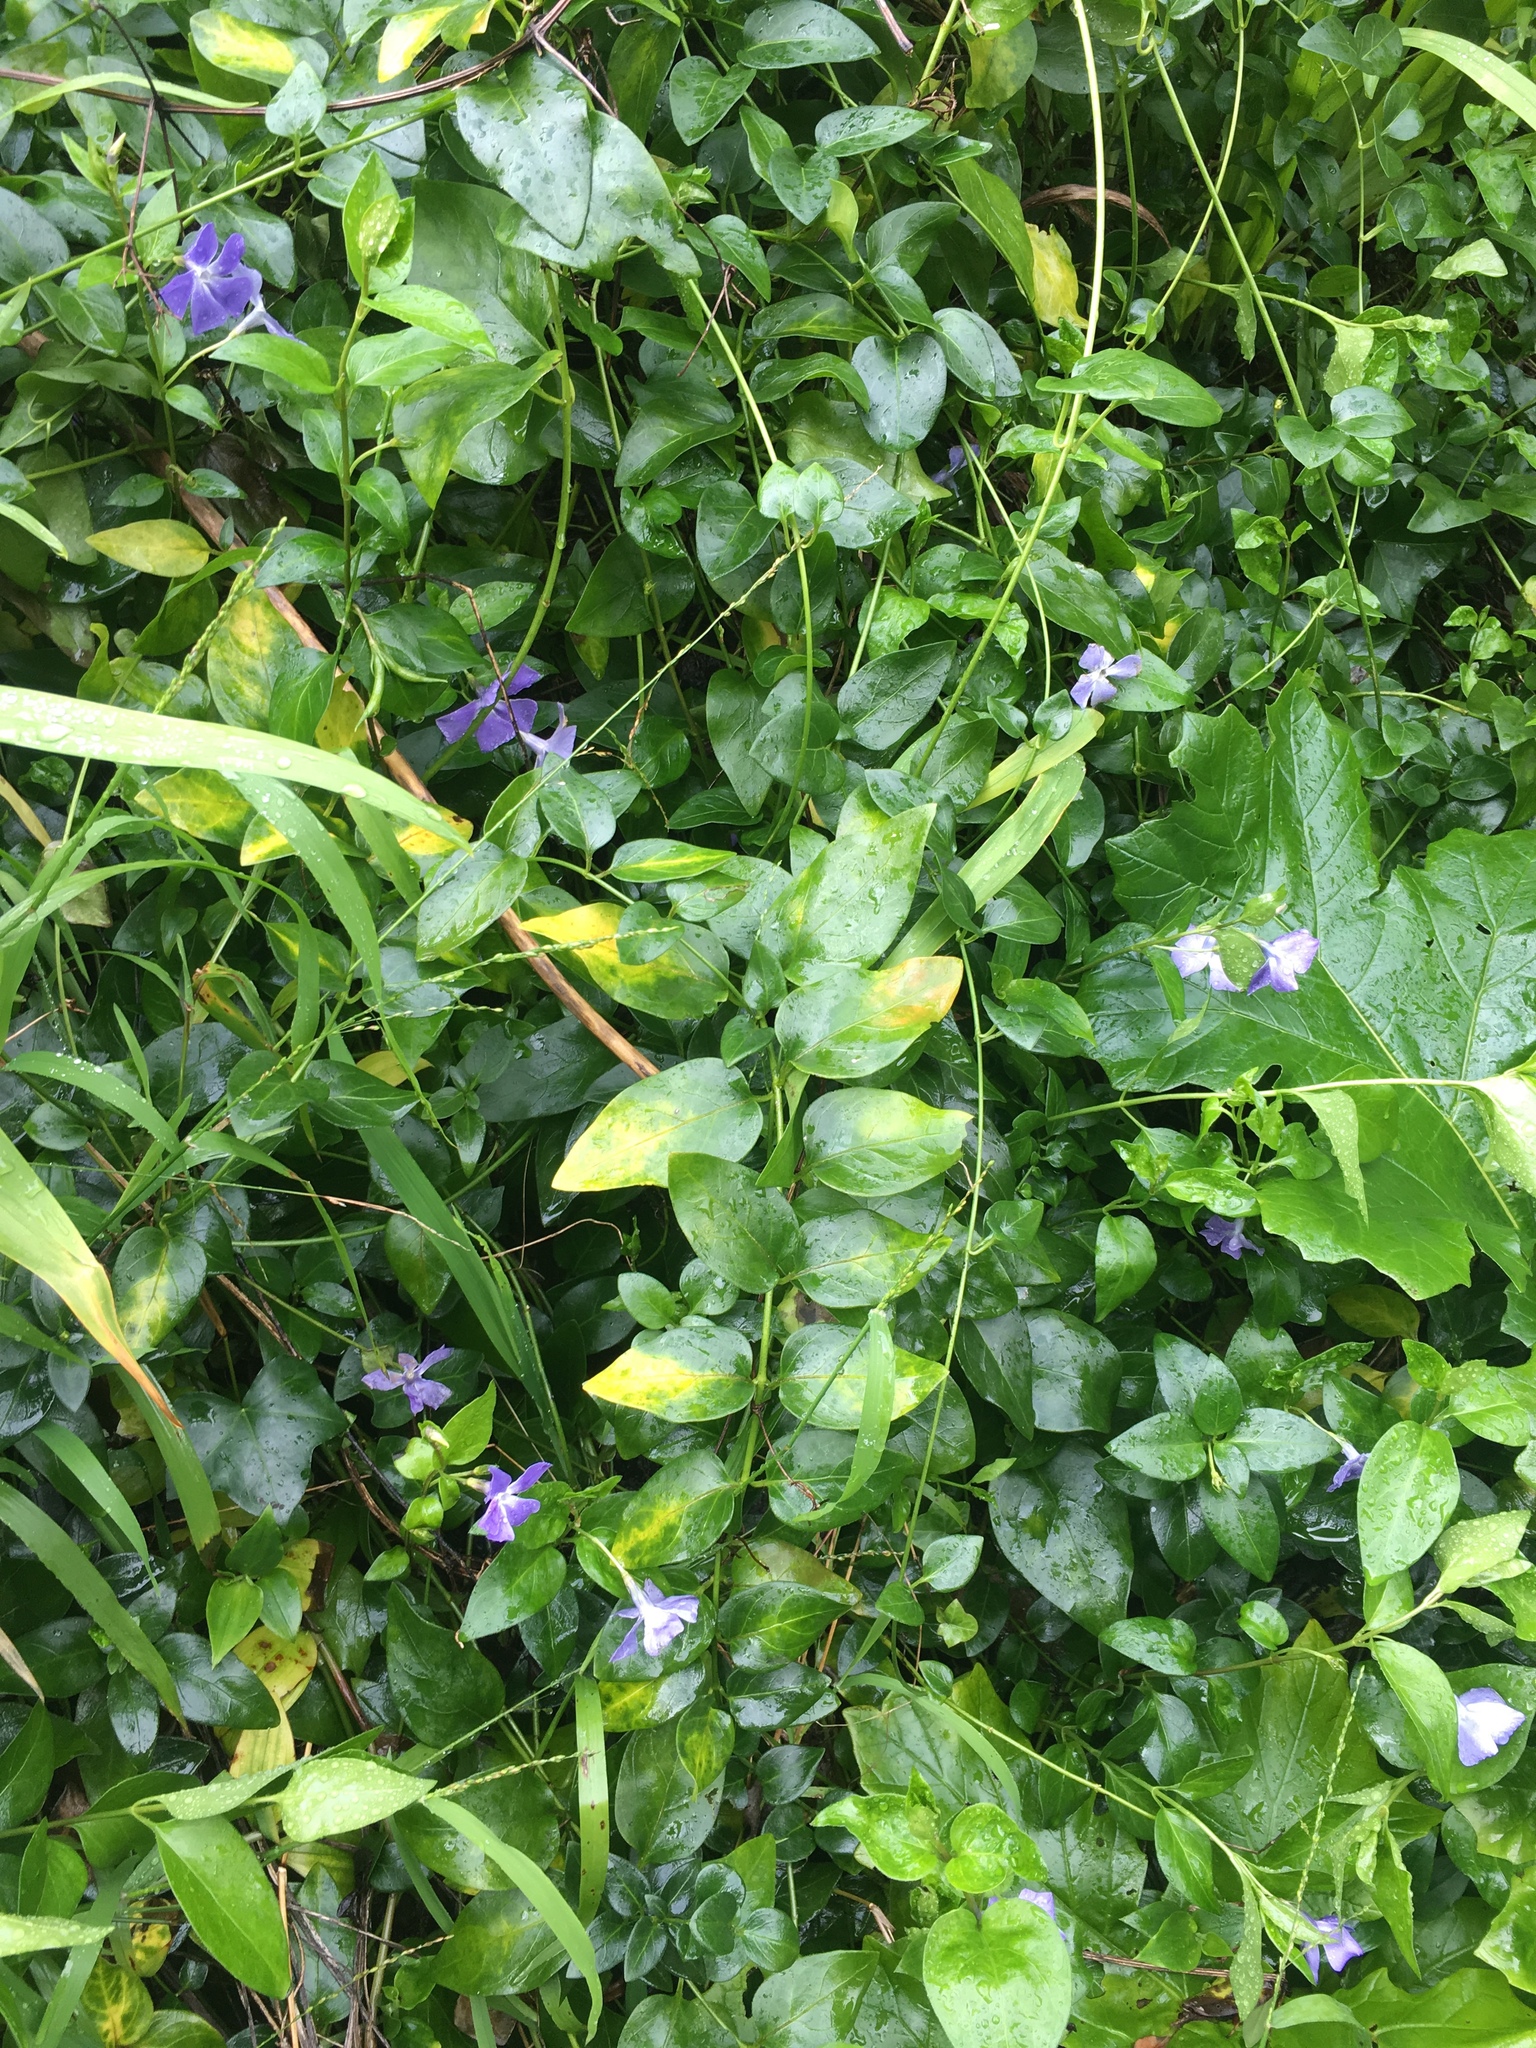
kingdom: Plantae
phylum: Tracheophyta
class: Magnoliopsida
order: Gentianales
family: Apocynaceae
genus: Vinca
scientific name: Vinca major
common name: Greater periwinkle
